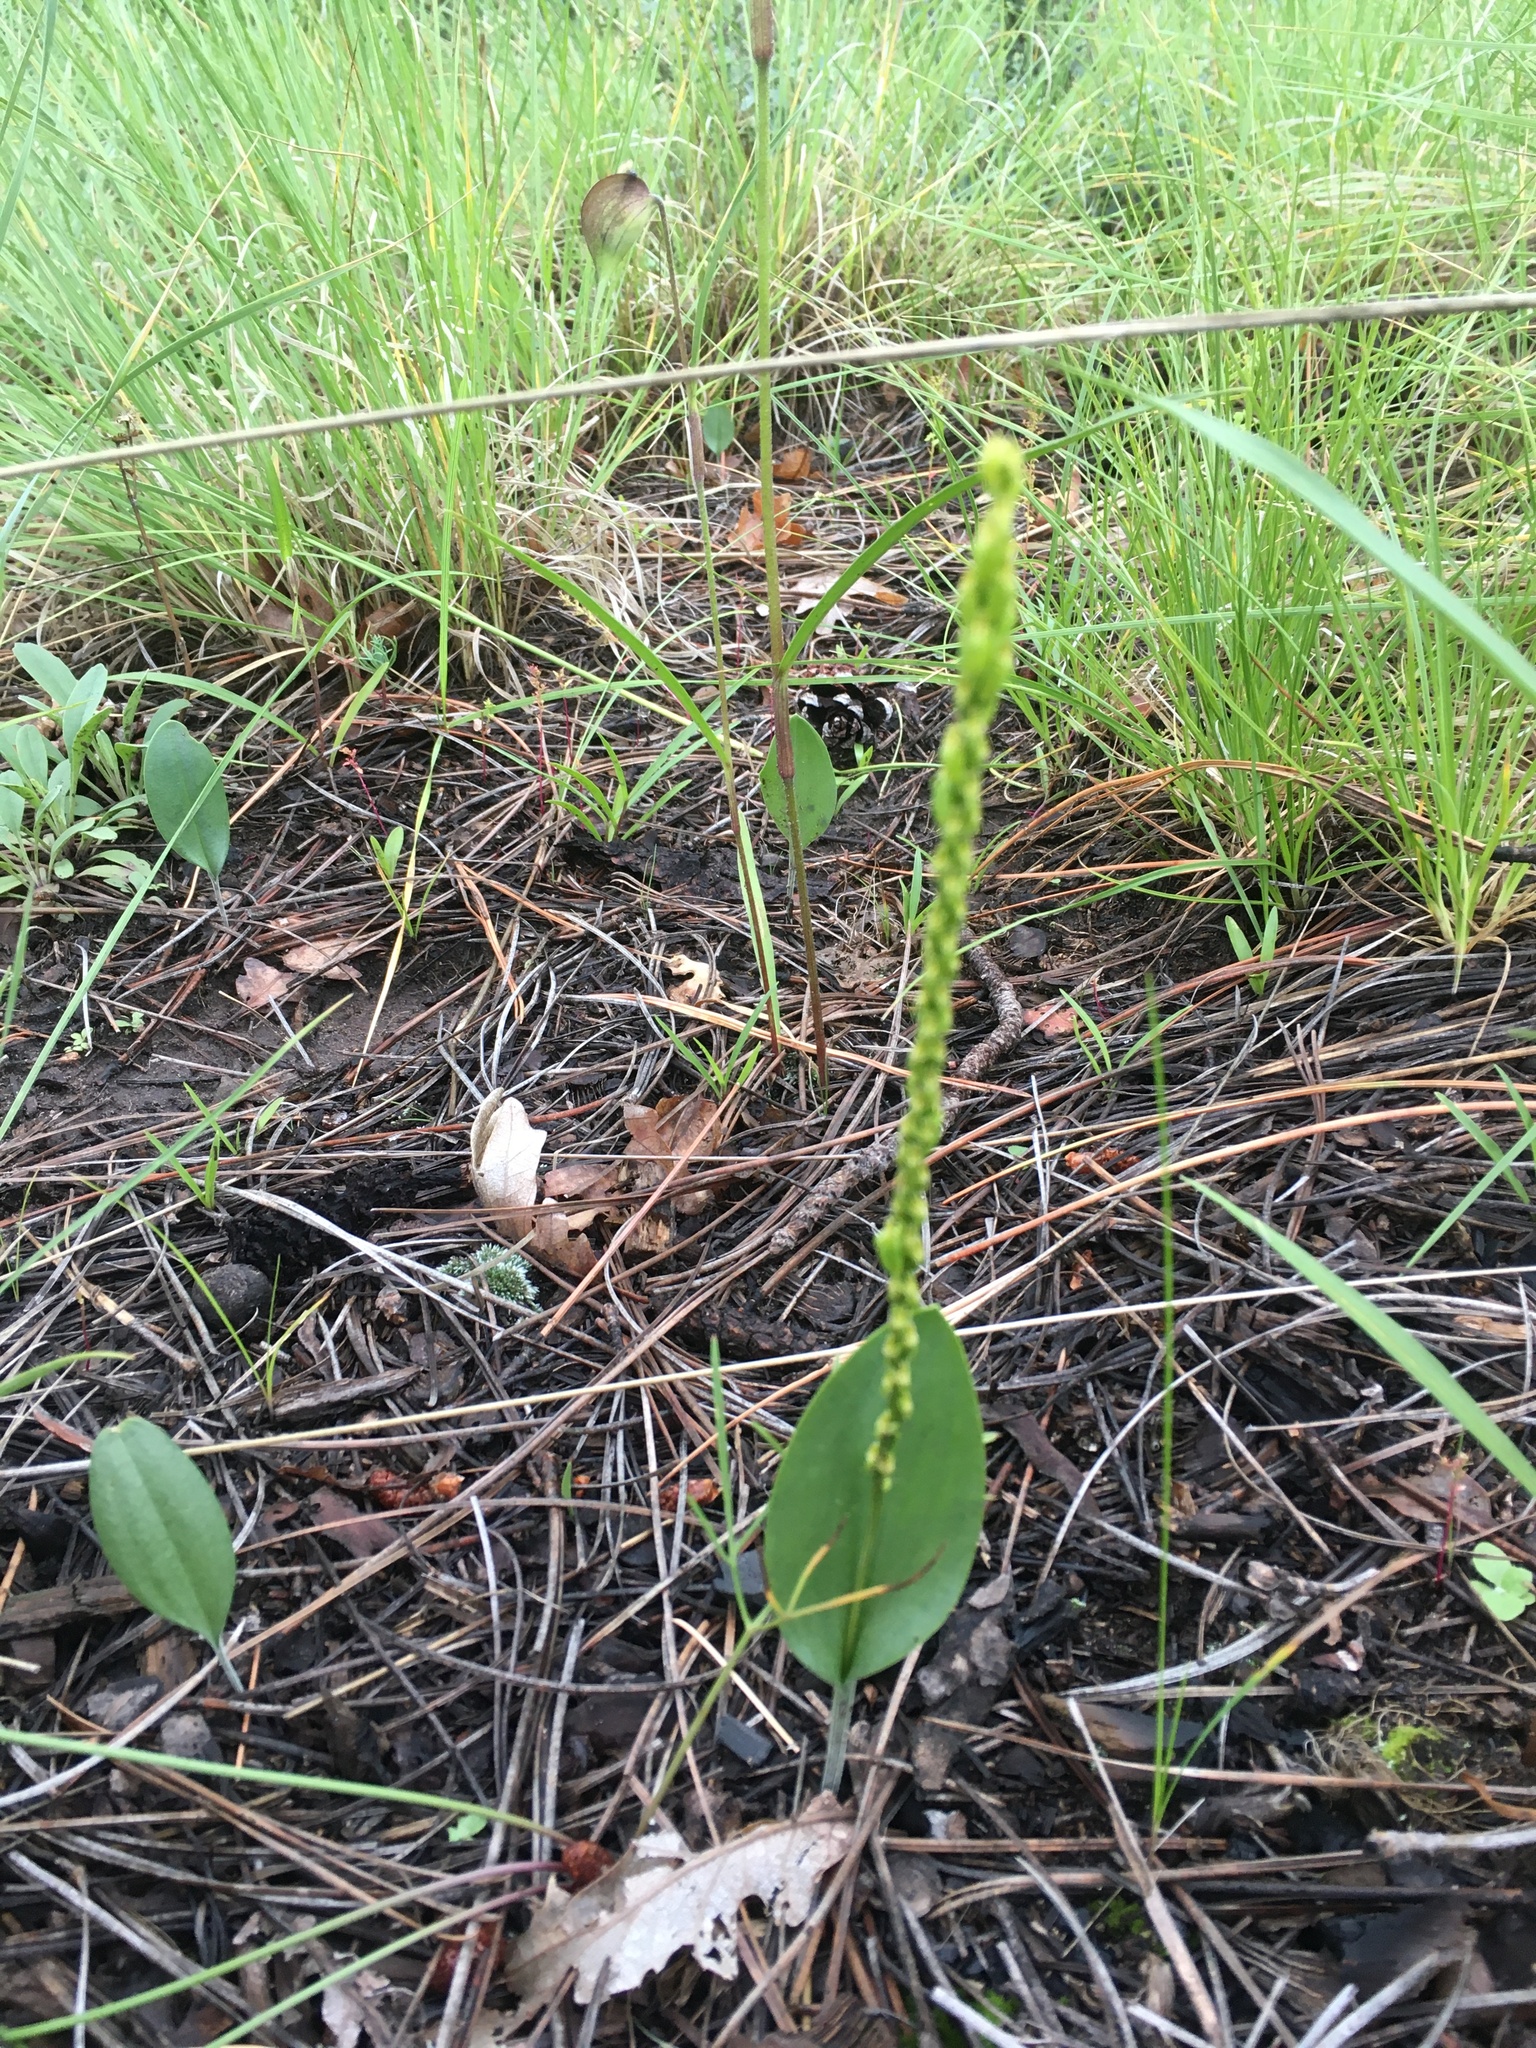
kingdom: Plantae
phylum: Tracheophyta
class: Liliopsida
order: Asparagales
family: Orchidaceae
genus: Malaxis
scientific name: Malaxis macrostachya
